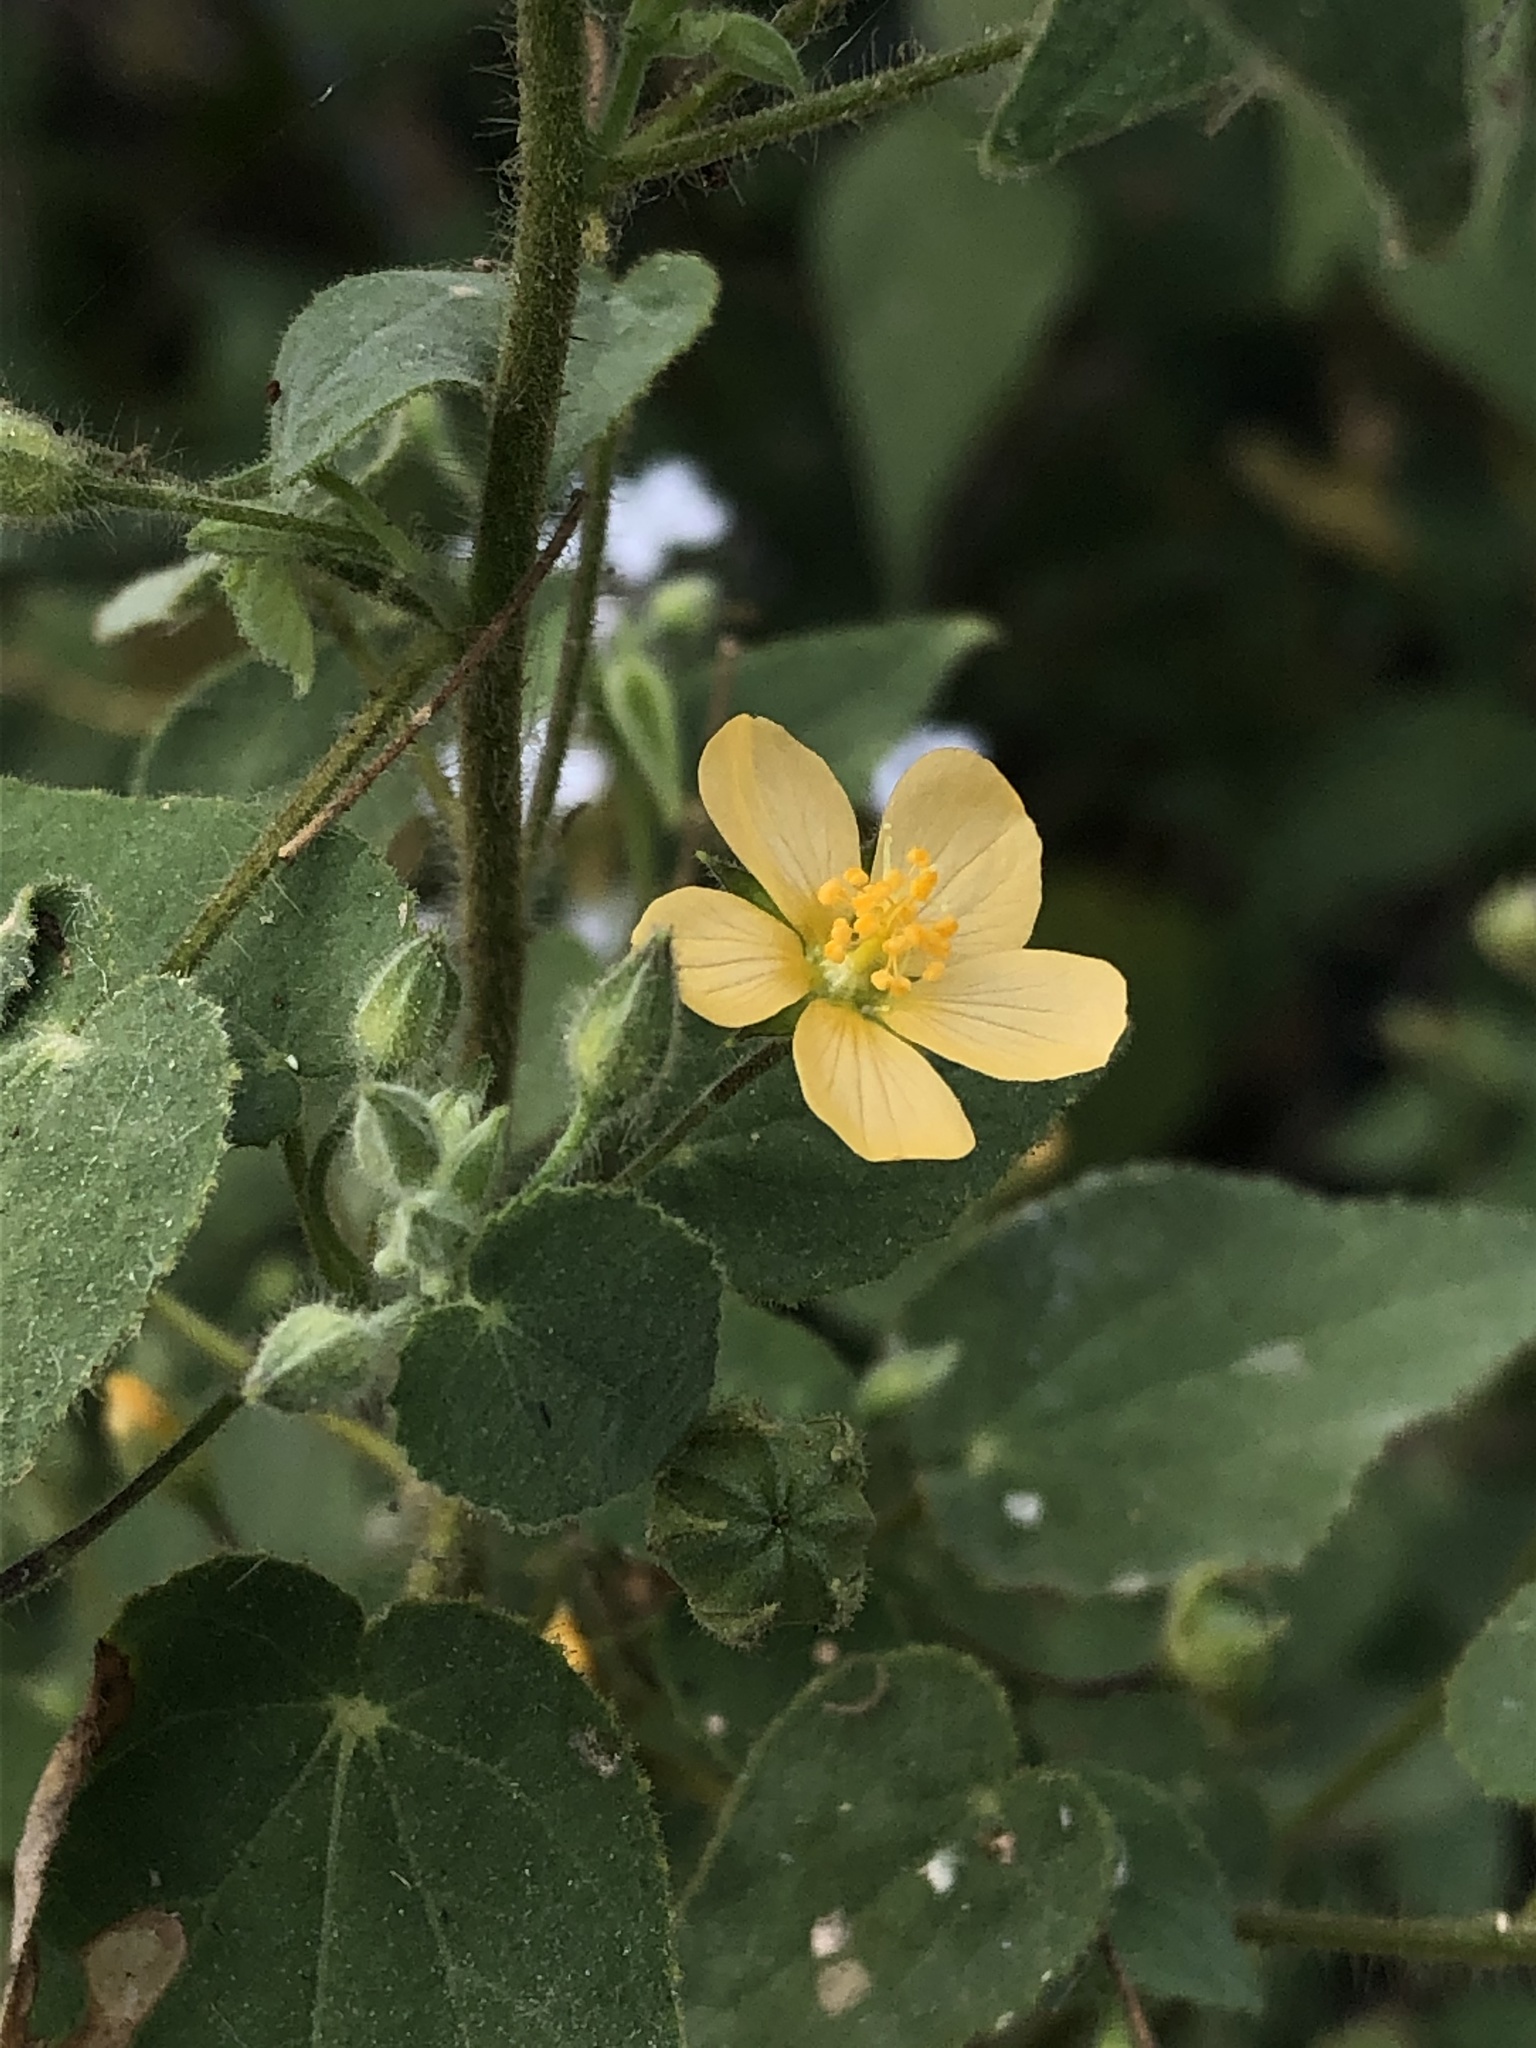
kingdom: Plantae
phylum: Tracheophyta
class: Magnoliopsida
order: Malvales
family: Malvaceae
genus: Abutilon
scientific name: Abutilon viscosum
